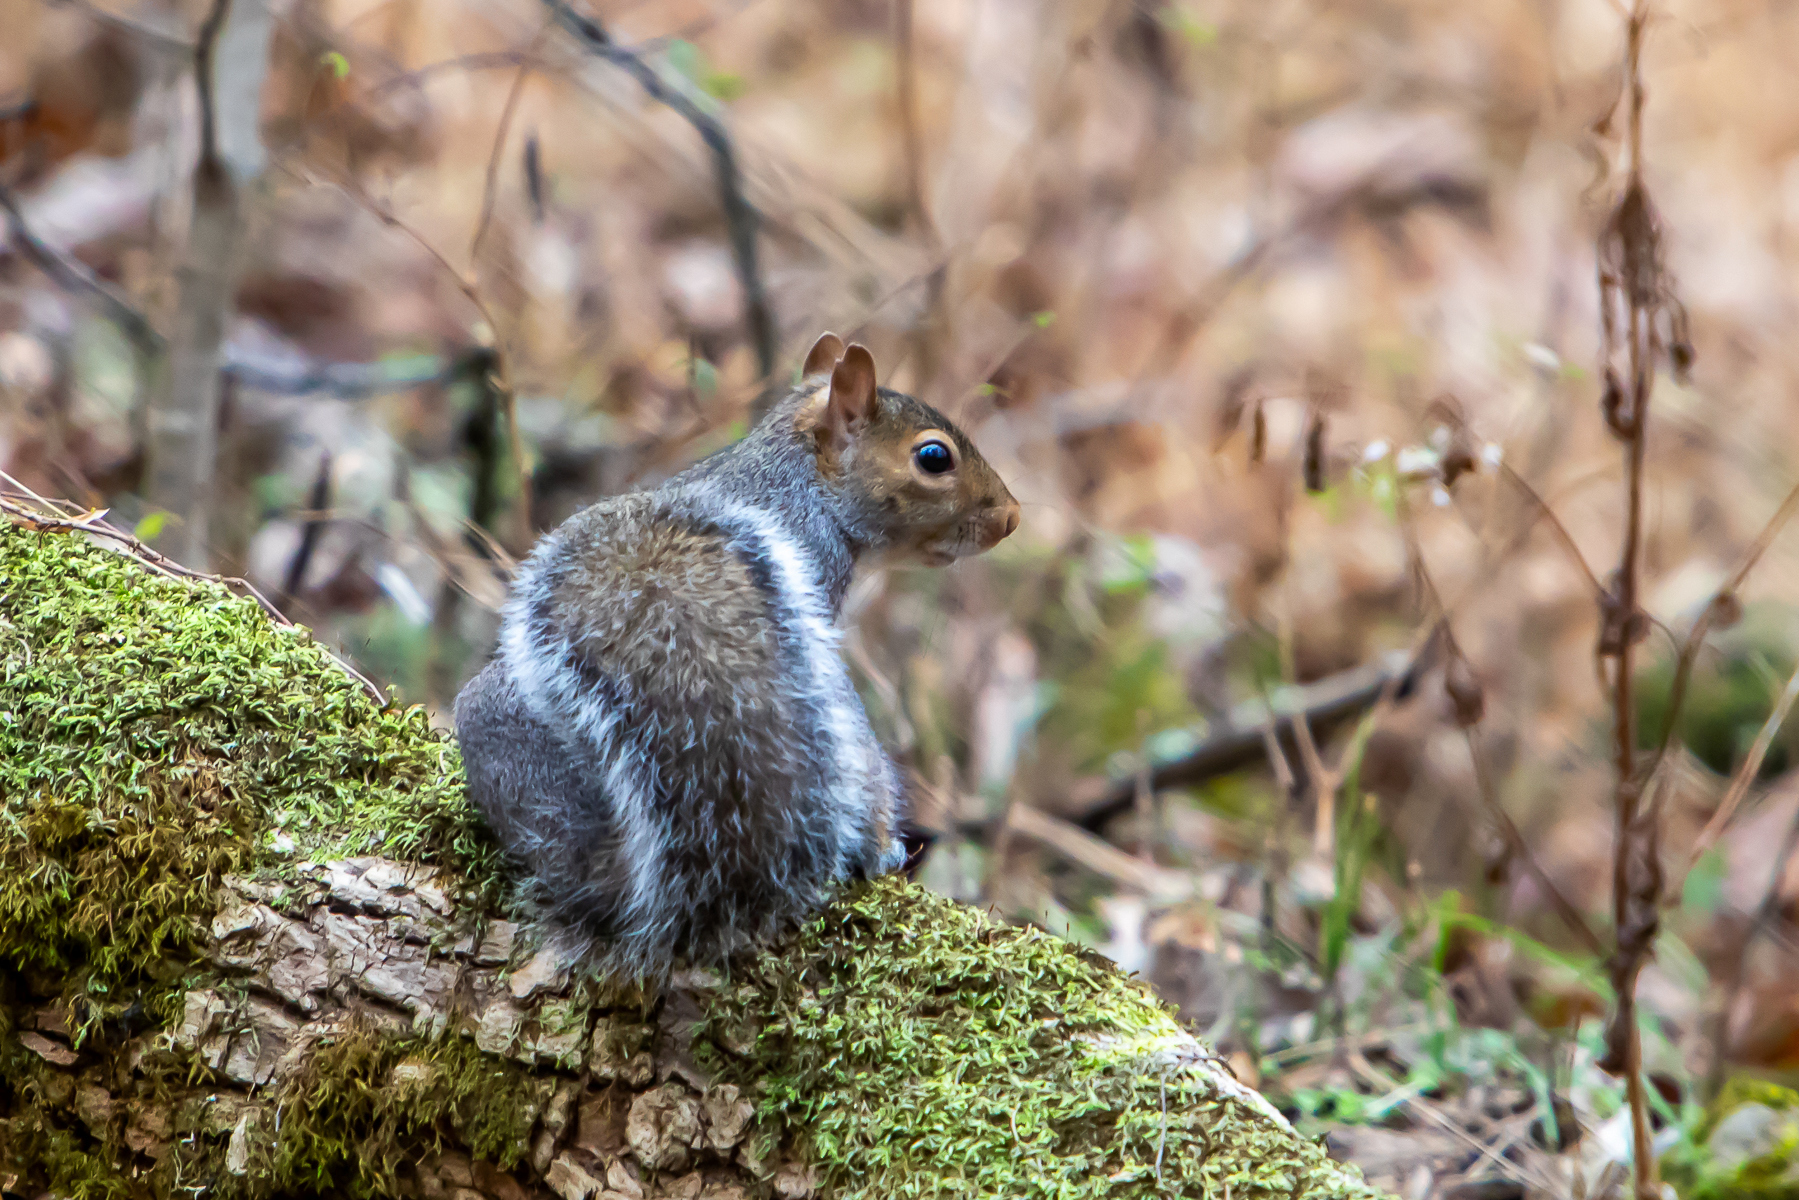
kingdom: Animalia
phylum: Chordata
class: Mammalia
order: Rodentia
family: Sciuridae
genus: Sciurus
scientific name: Sciurus carolinensis
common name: Eastern gray squirrel
